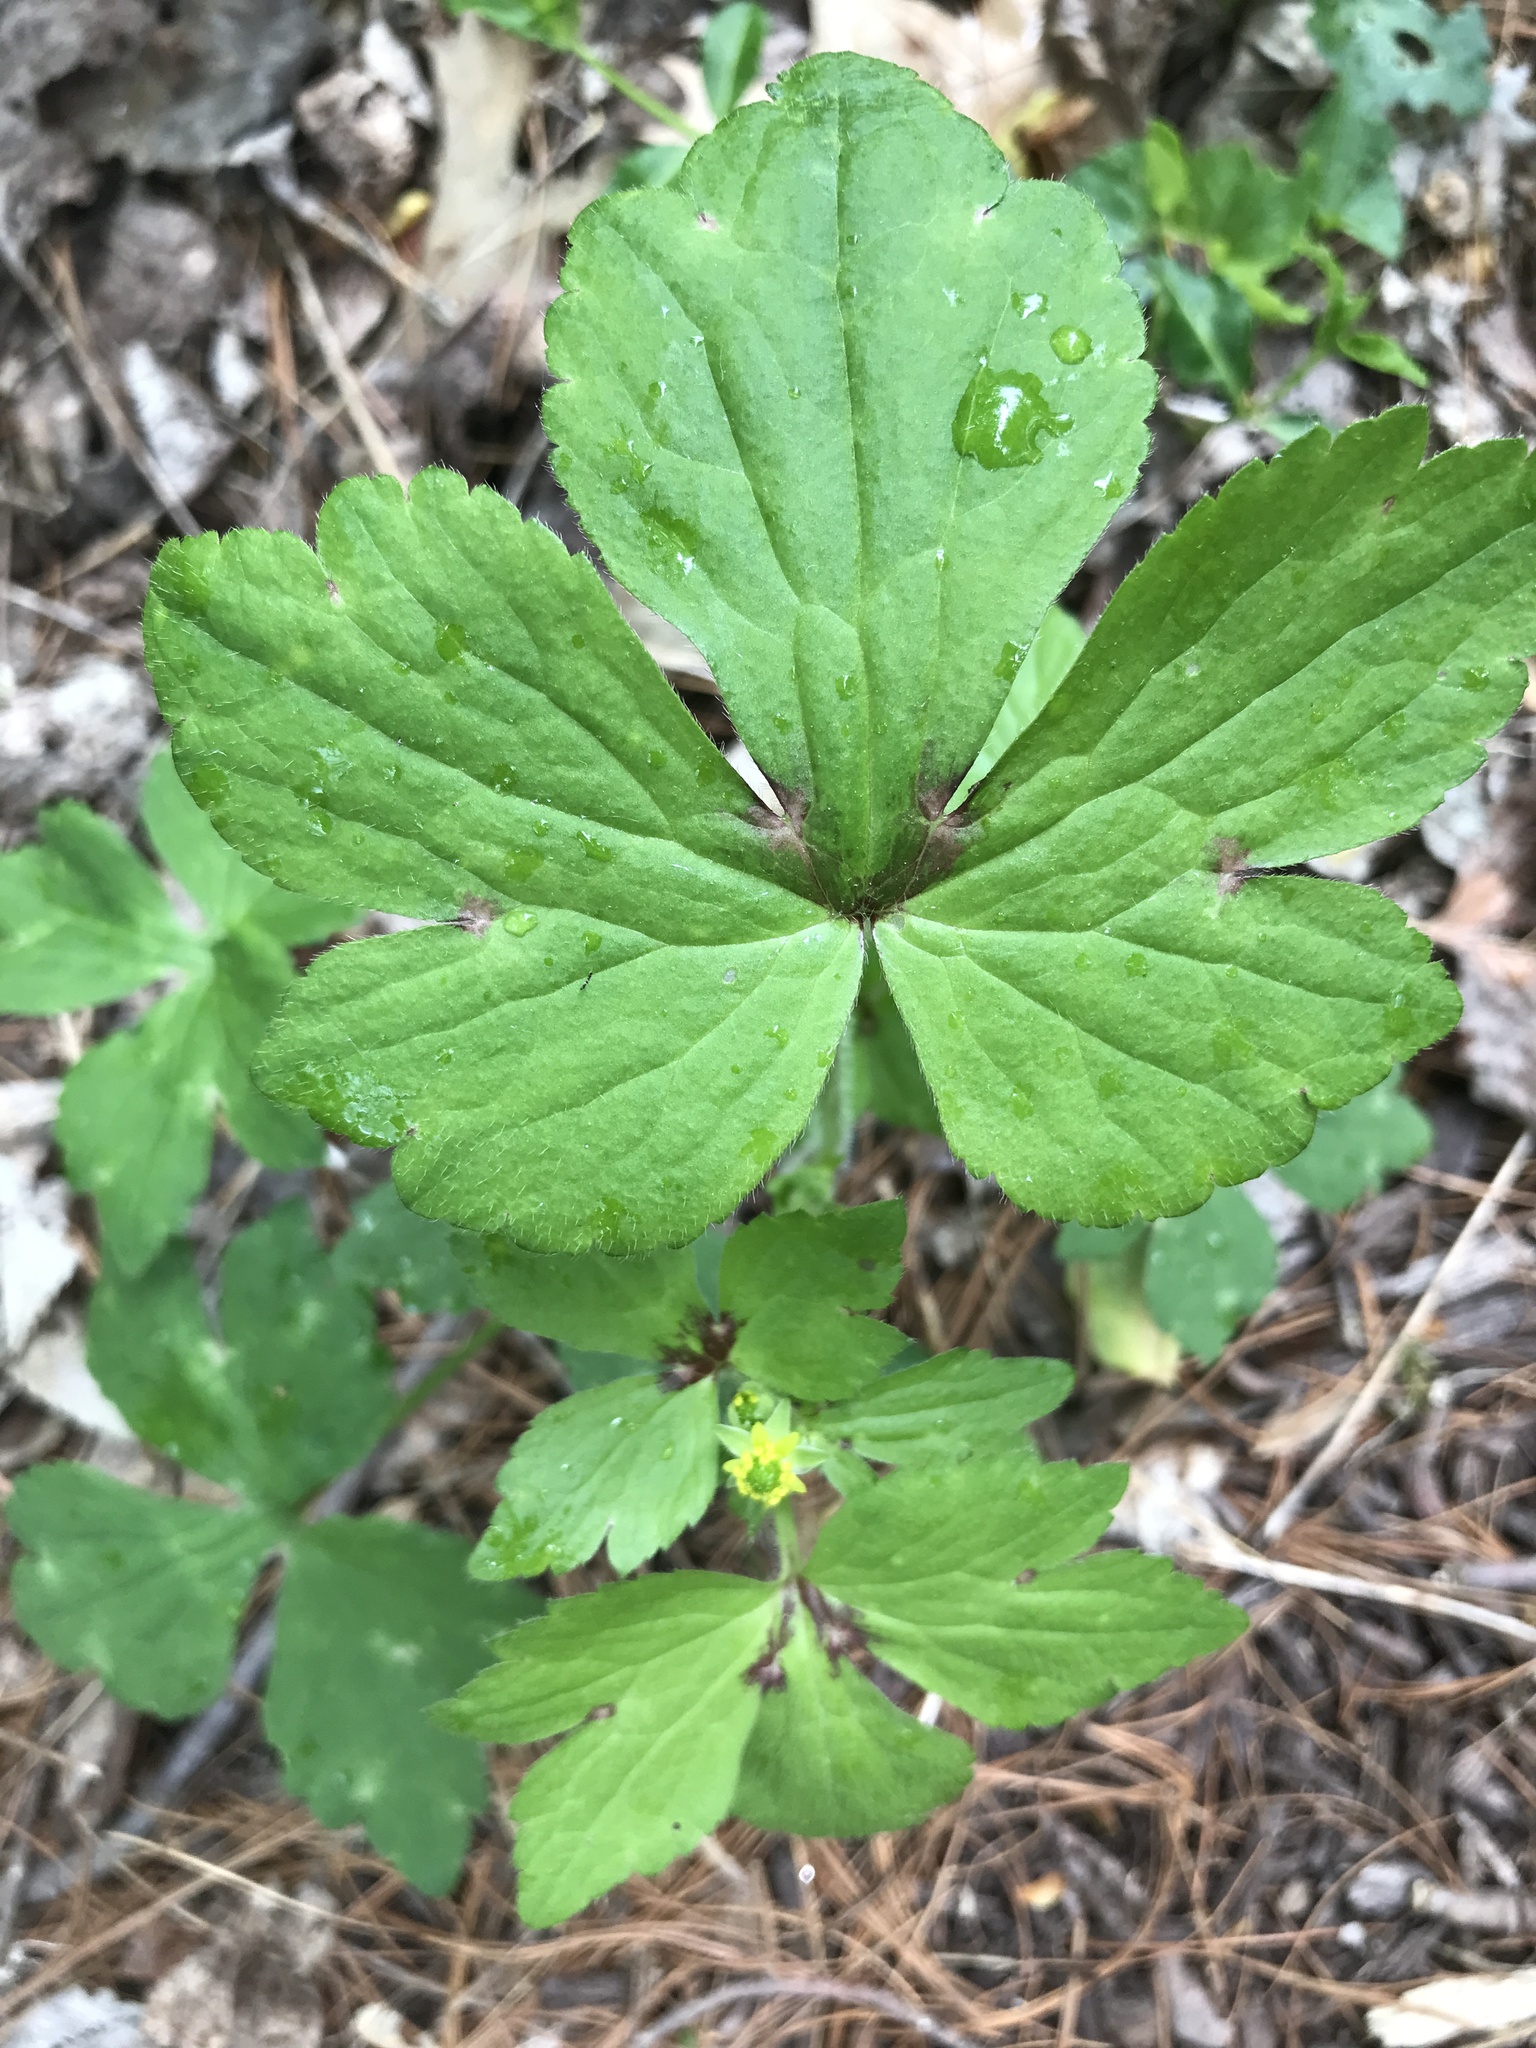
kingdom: Plantae
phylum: Tracheophyta
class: Magnoliopsida
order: Ranunculales
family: Ranunculaceae
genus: Ranunculus
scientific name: Ranunculus recurvatus
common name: Blisterwort
